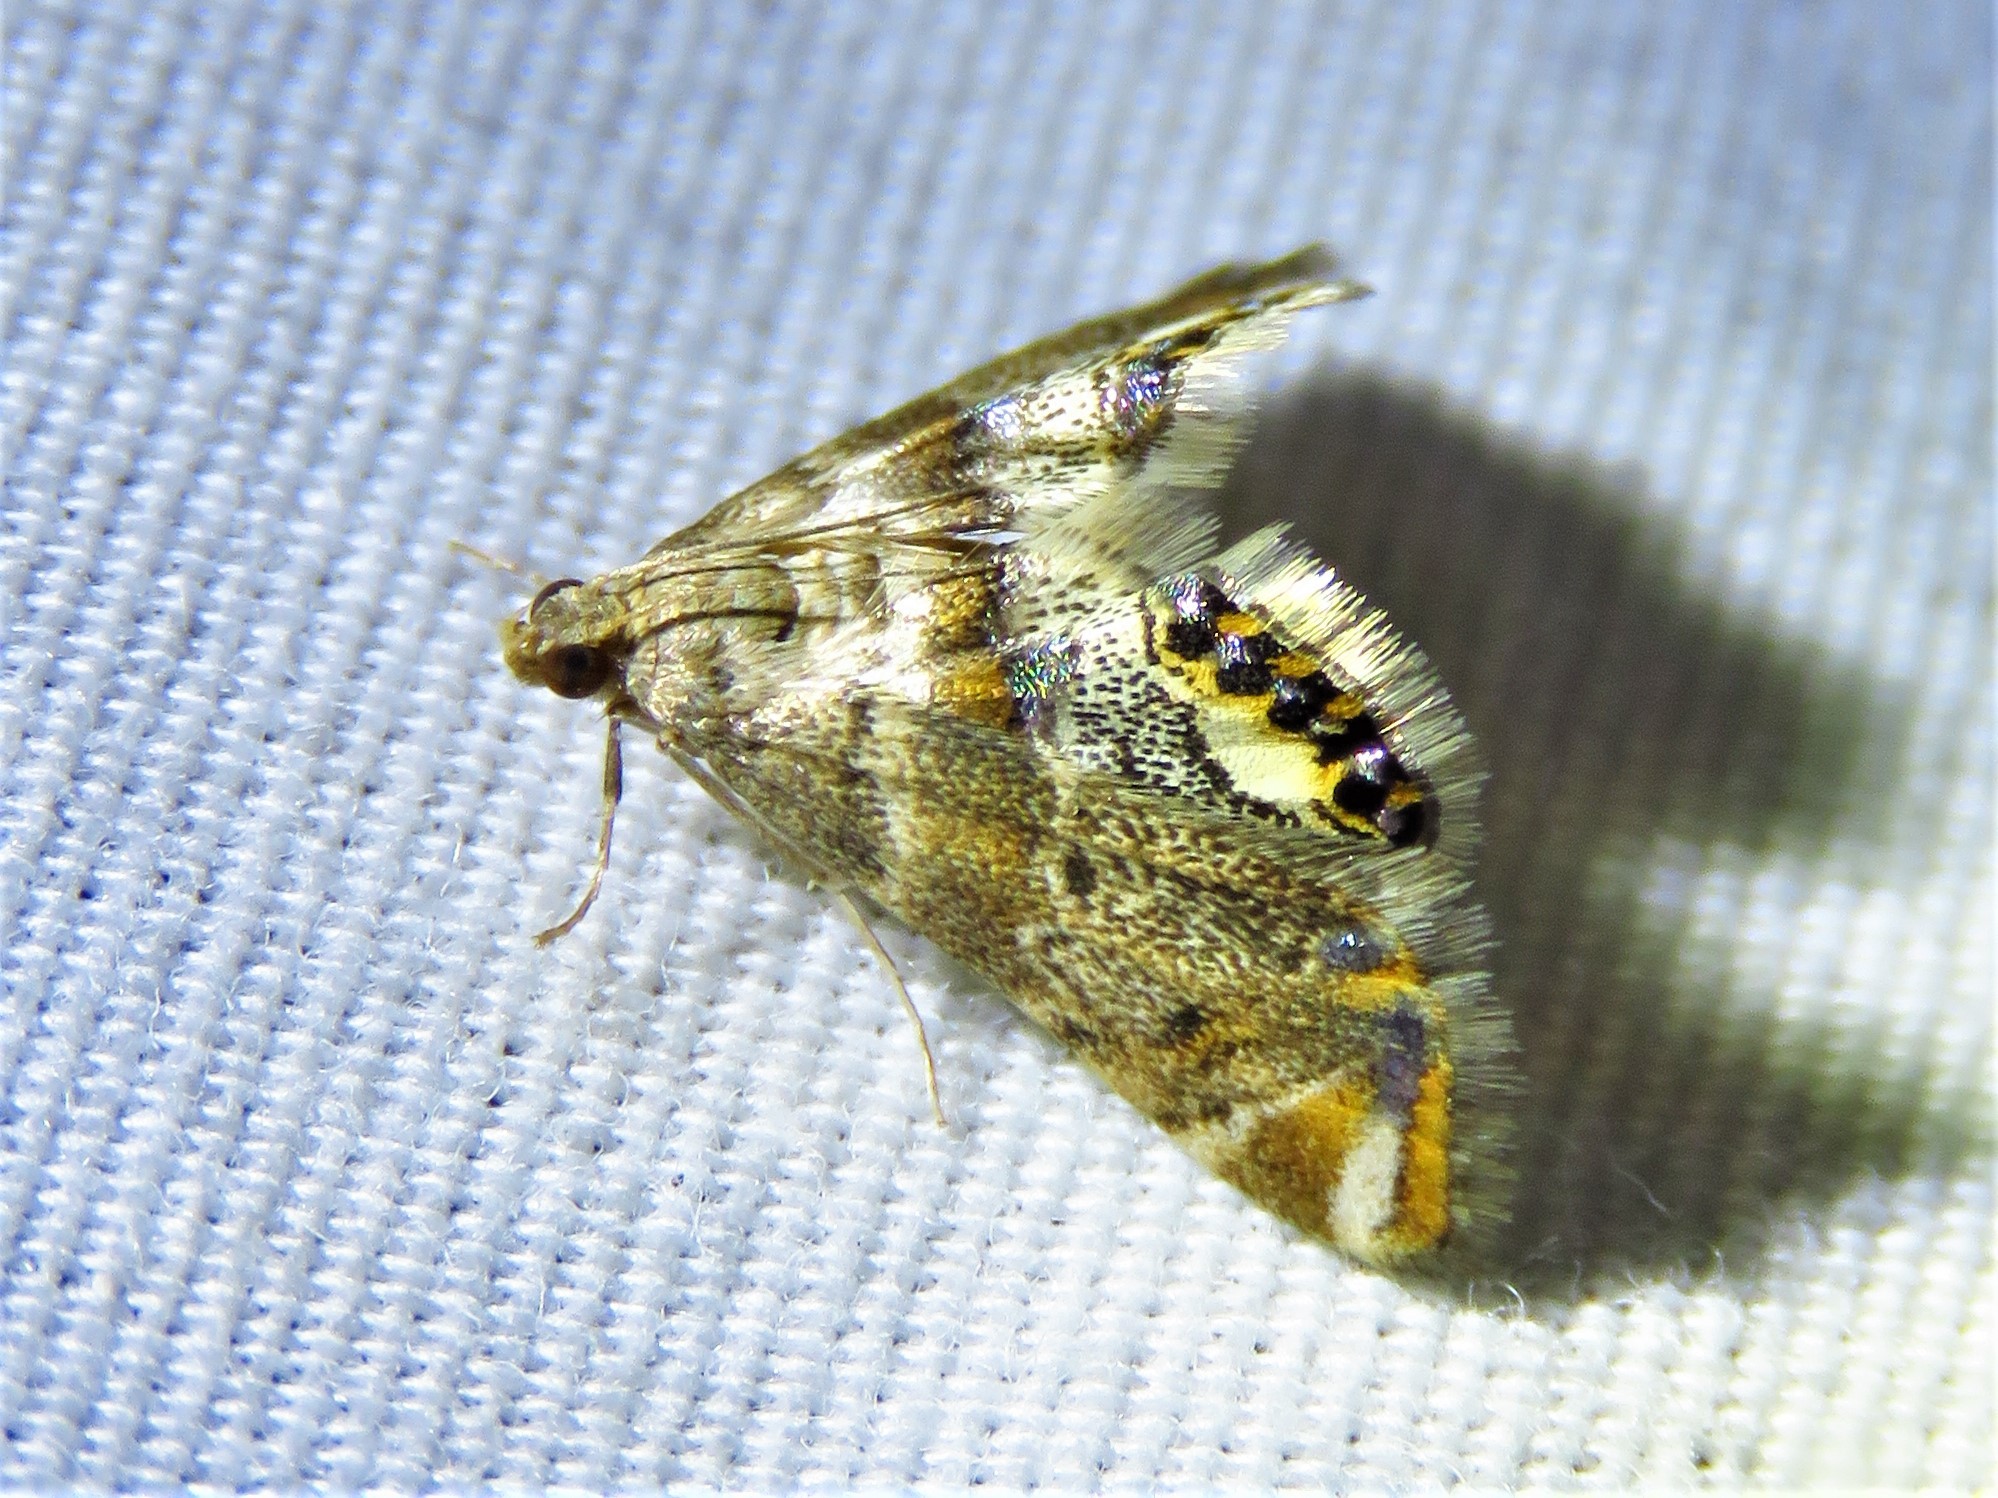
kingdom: Animalia
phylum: Arthropoda
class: Insecta
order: Lepidoptera
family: Crambidae
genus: Petrophila
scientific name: Petrophila fulicalis
